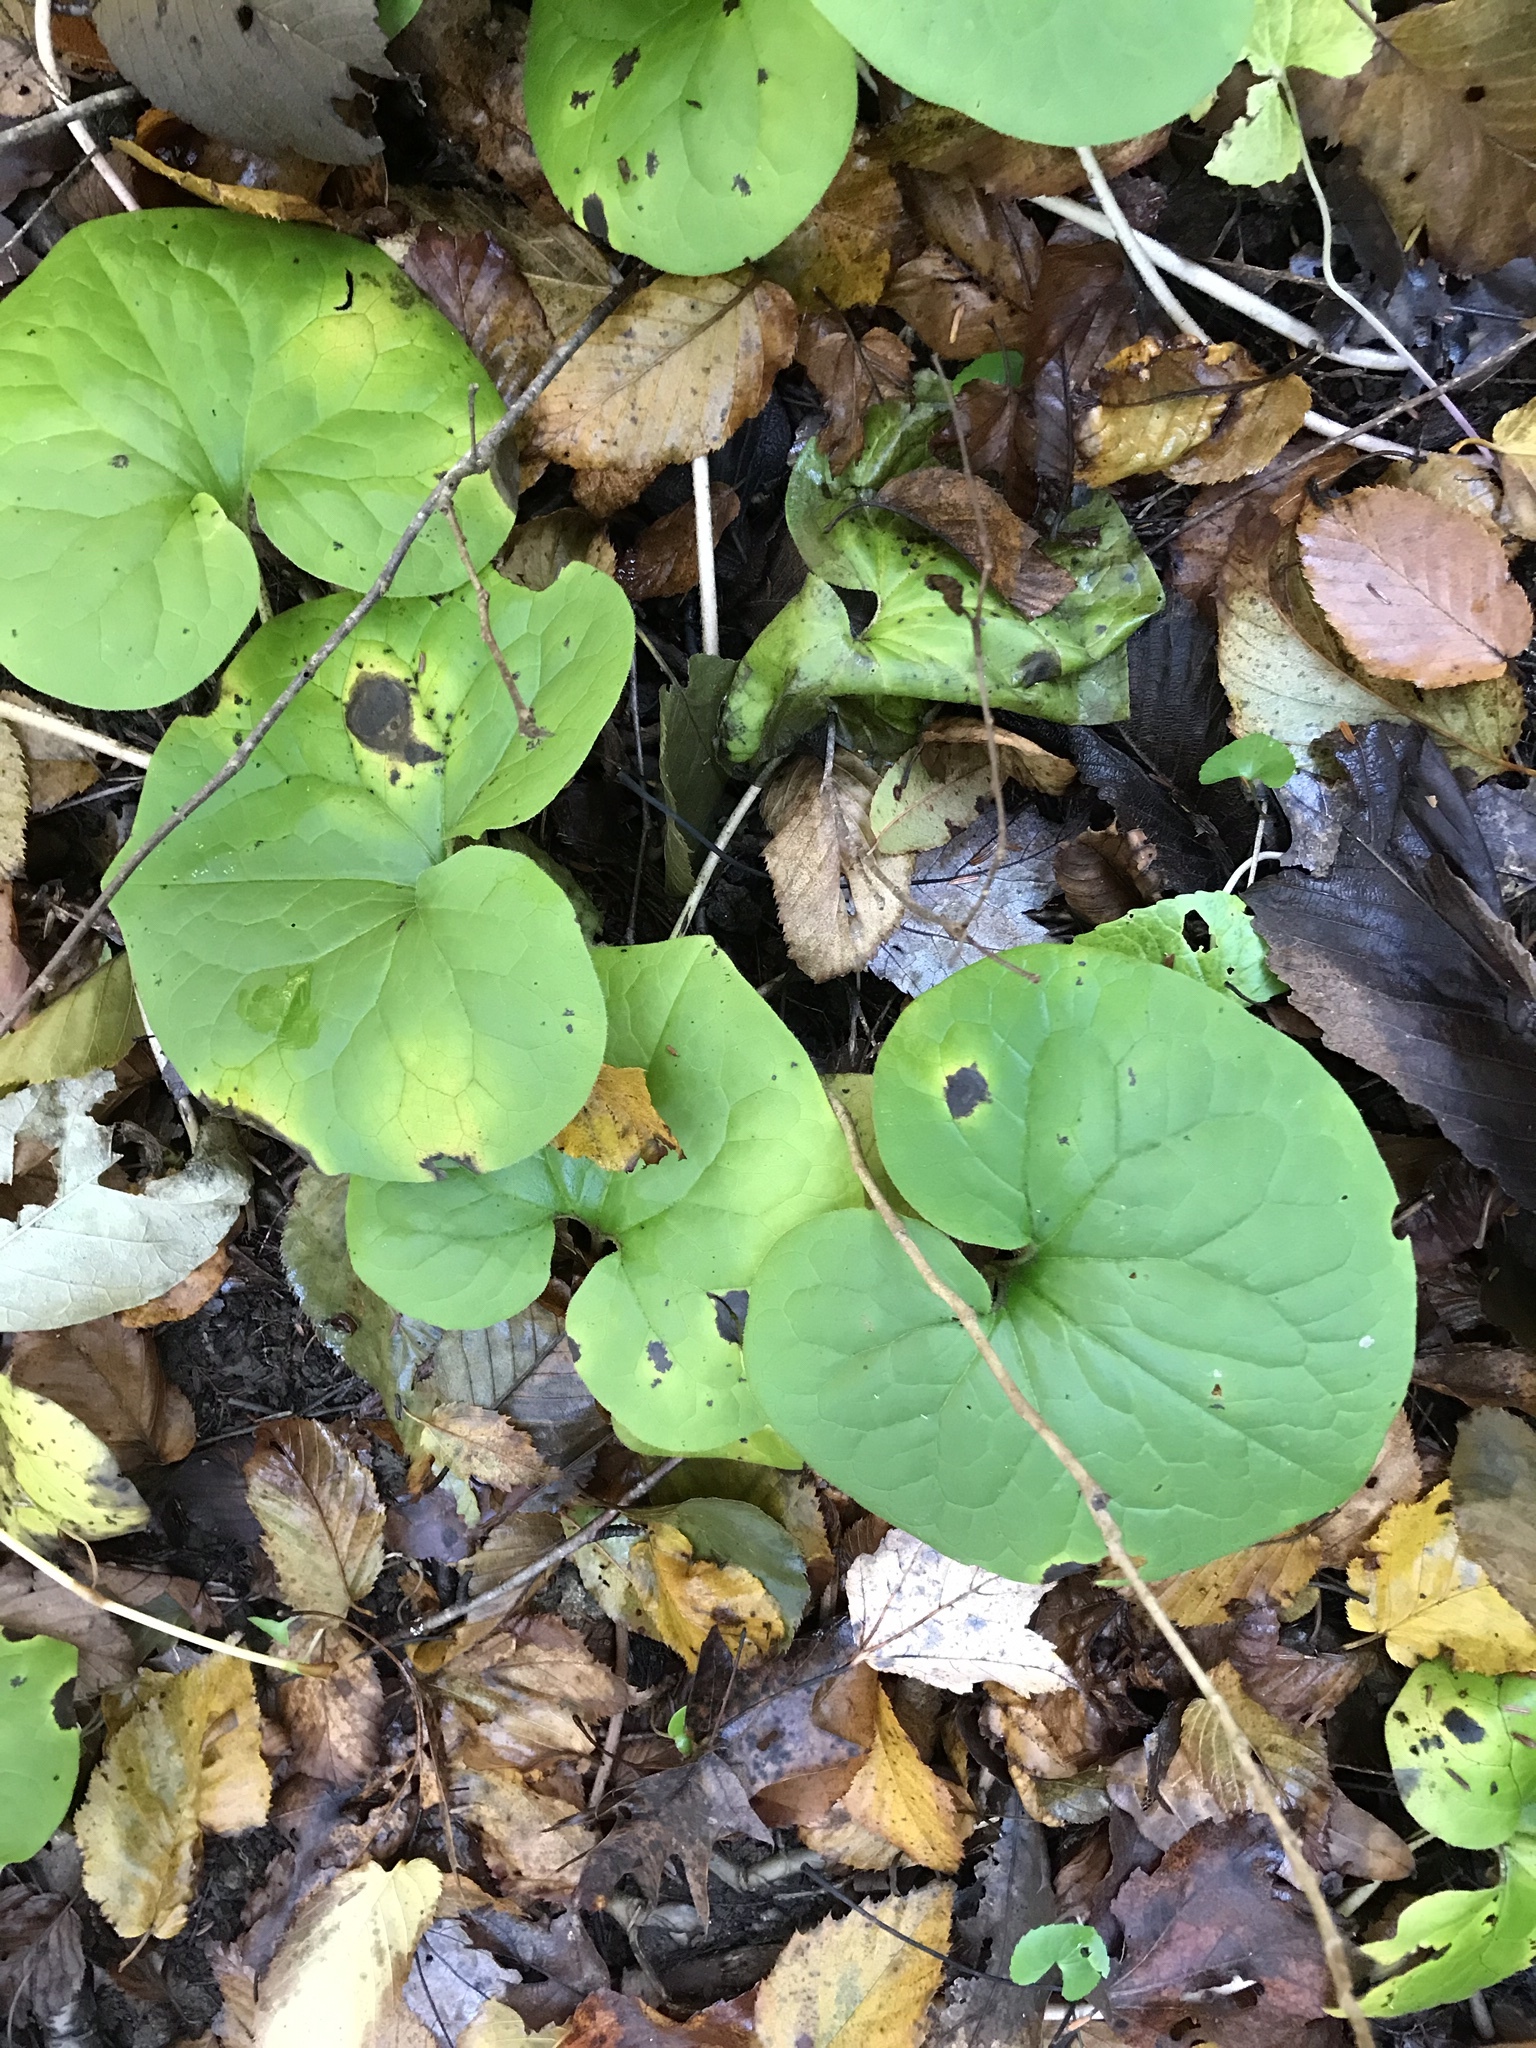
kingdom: Plantae
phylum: Tracheophyta
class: Magnoliopsida
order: Piperales
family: Aristolochiaceae
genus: Asarum
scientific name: Asarum canadense
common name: Wild ginger
